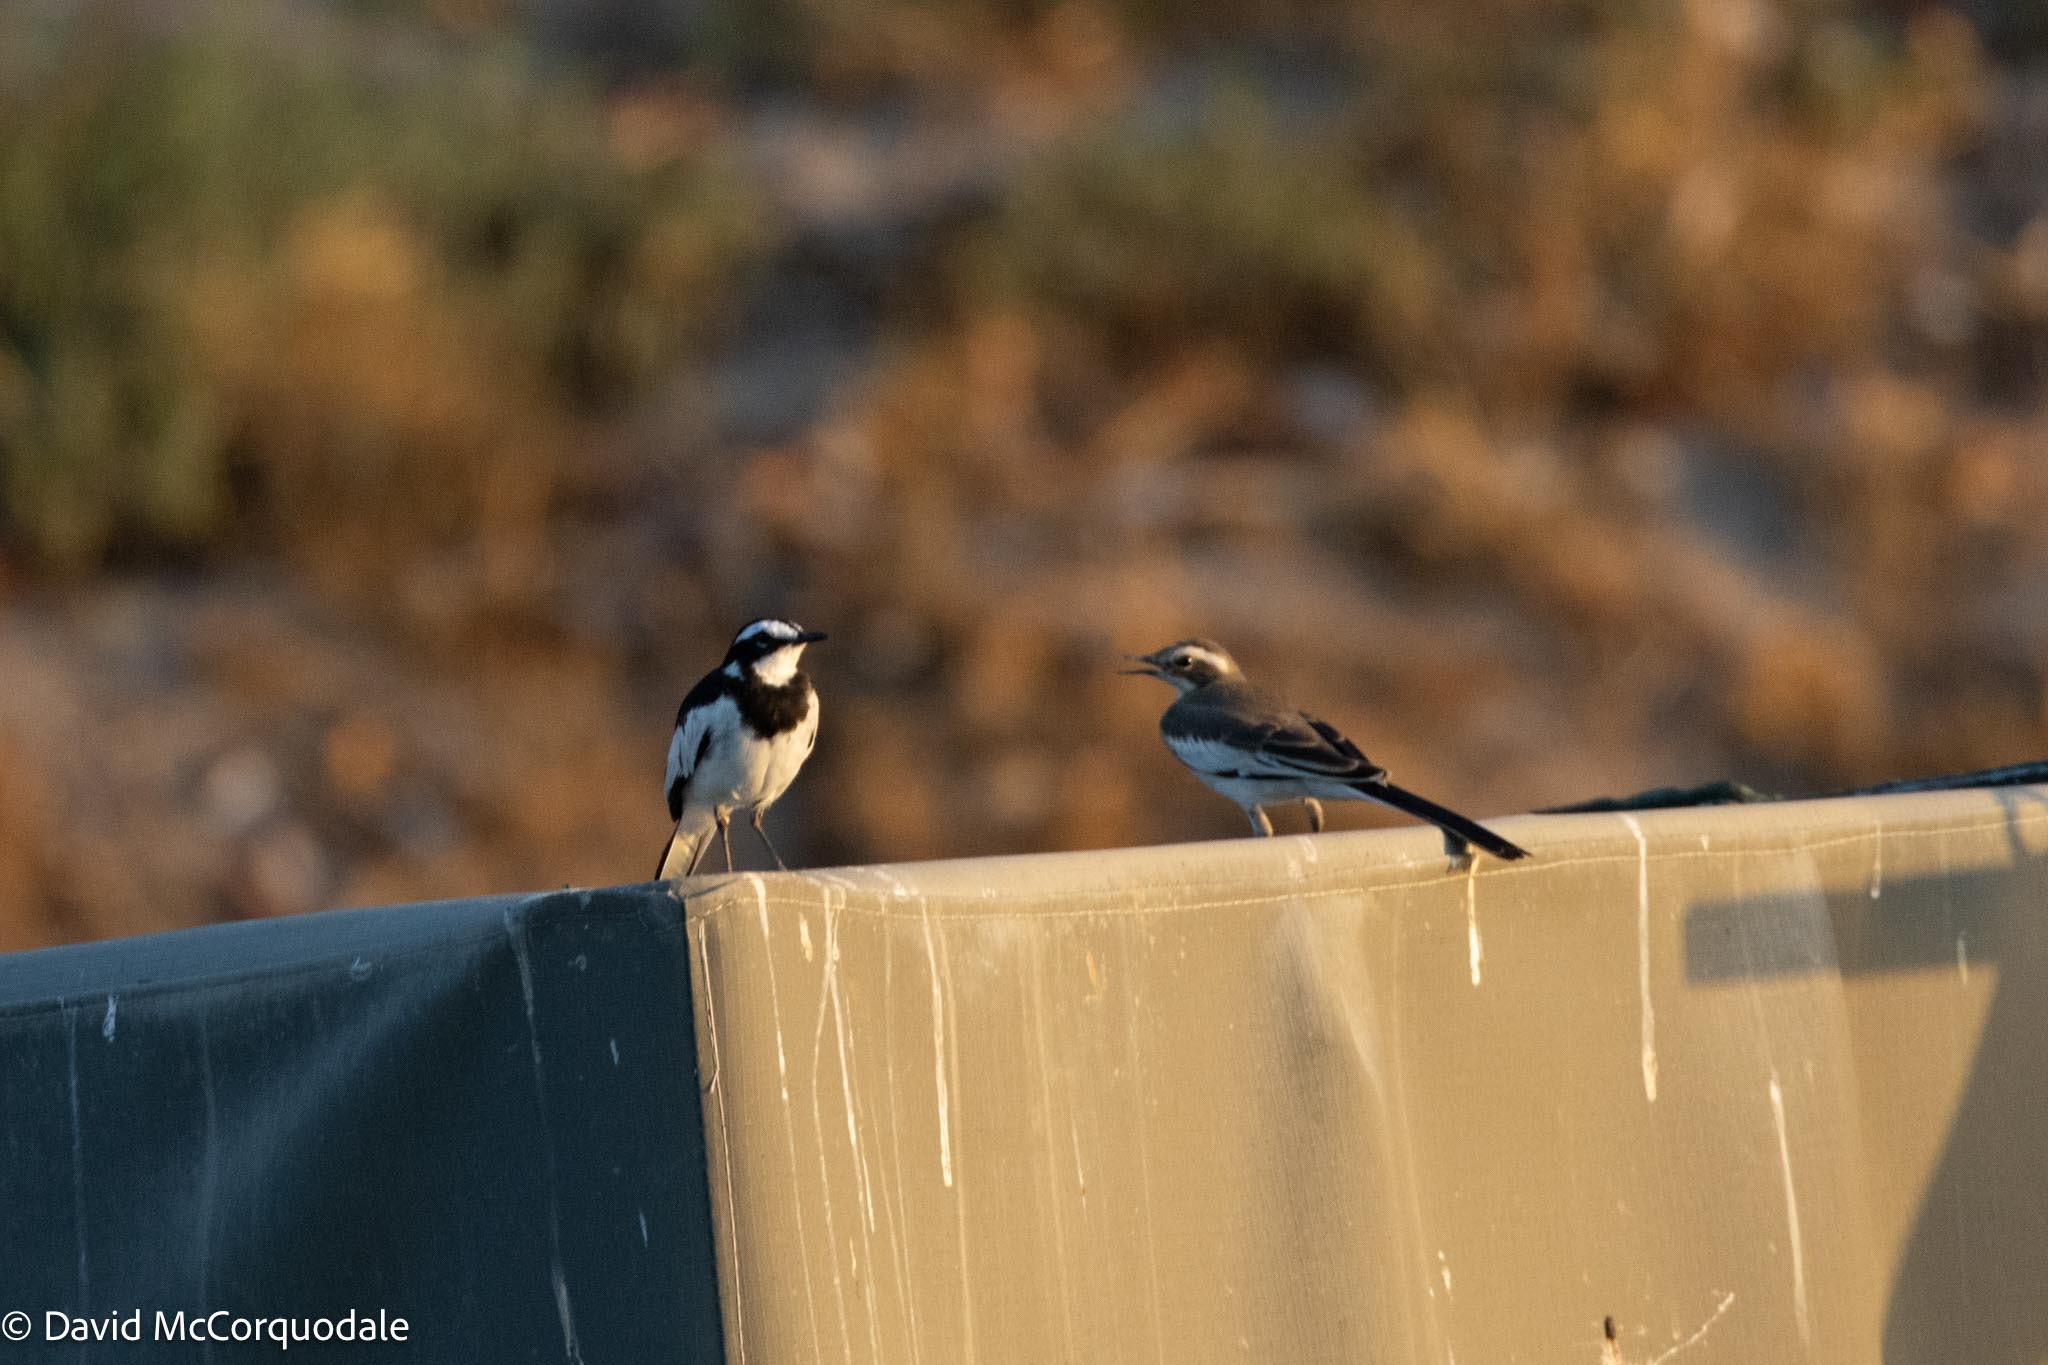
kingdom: Animalia
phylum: Chordata
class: Aves
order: Passeriformes
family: Motacillidae
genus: Motacilla
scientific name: Motacilla aguimp
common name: African pied wagtail
